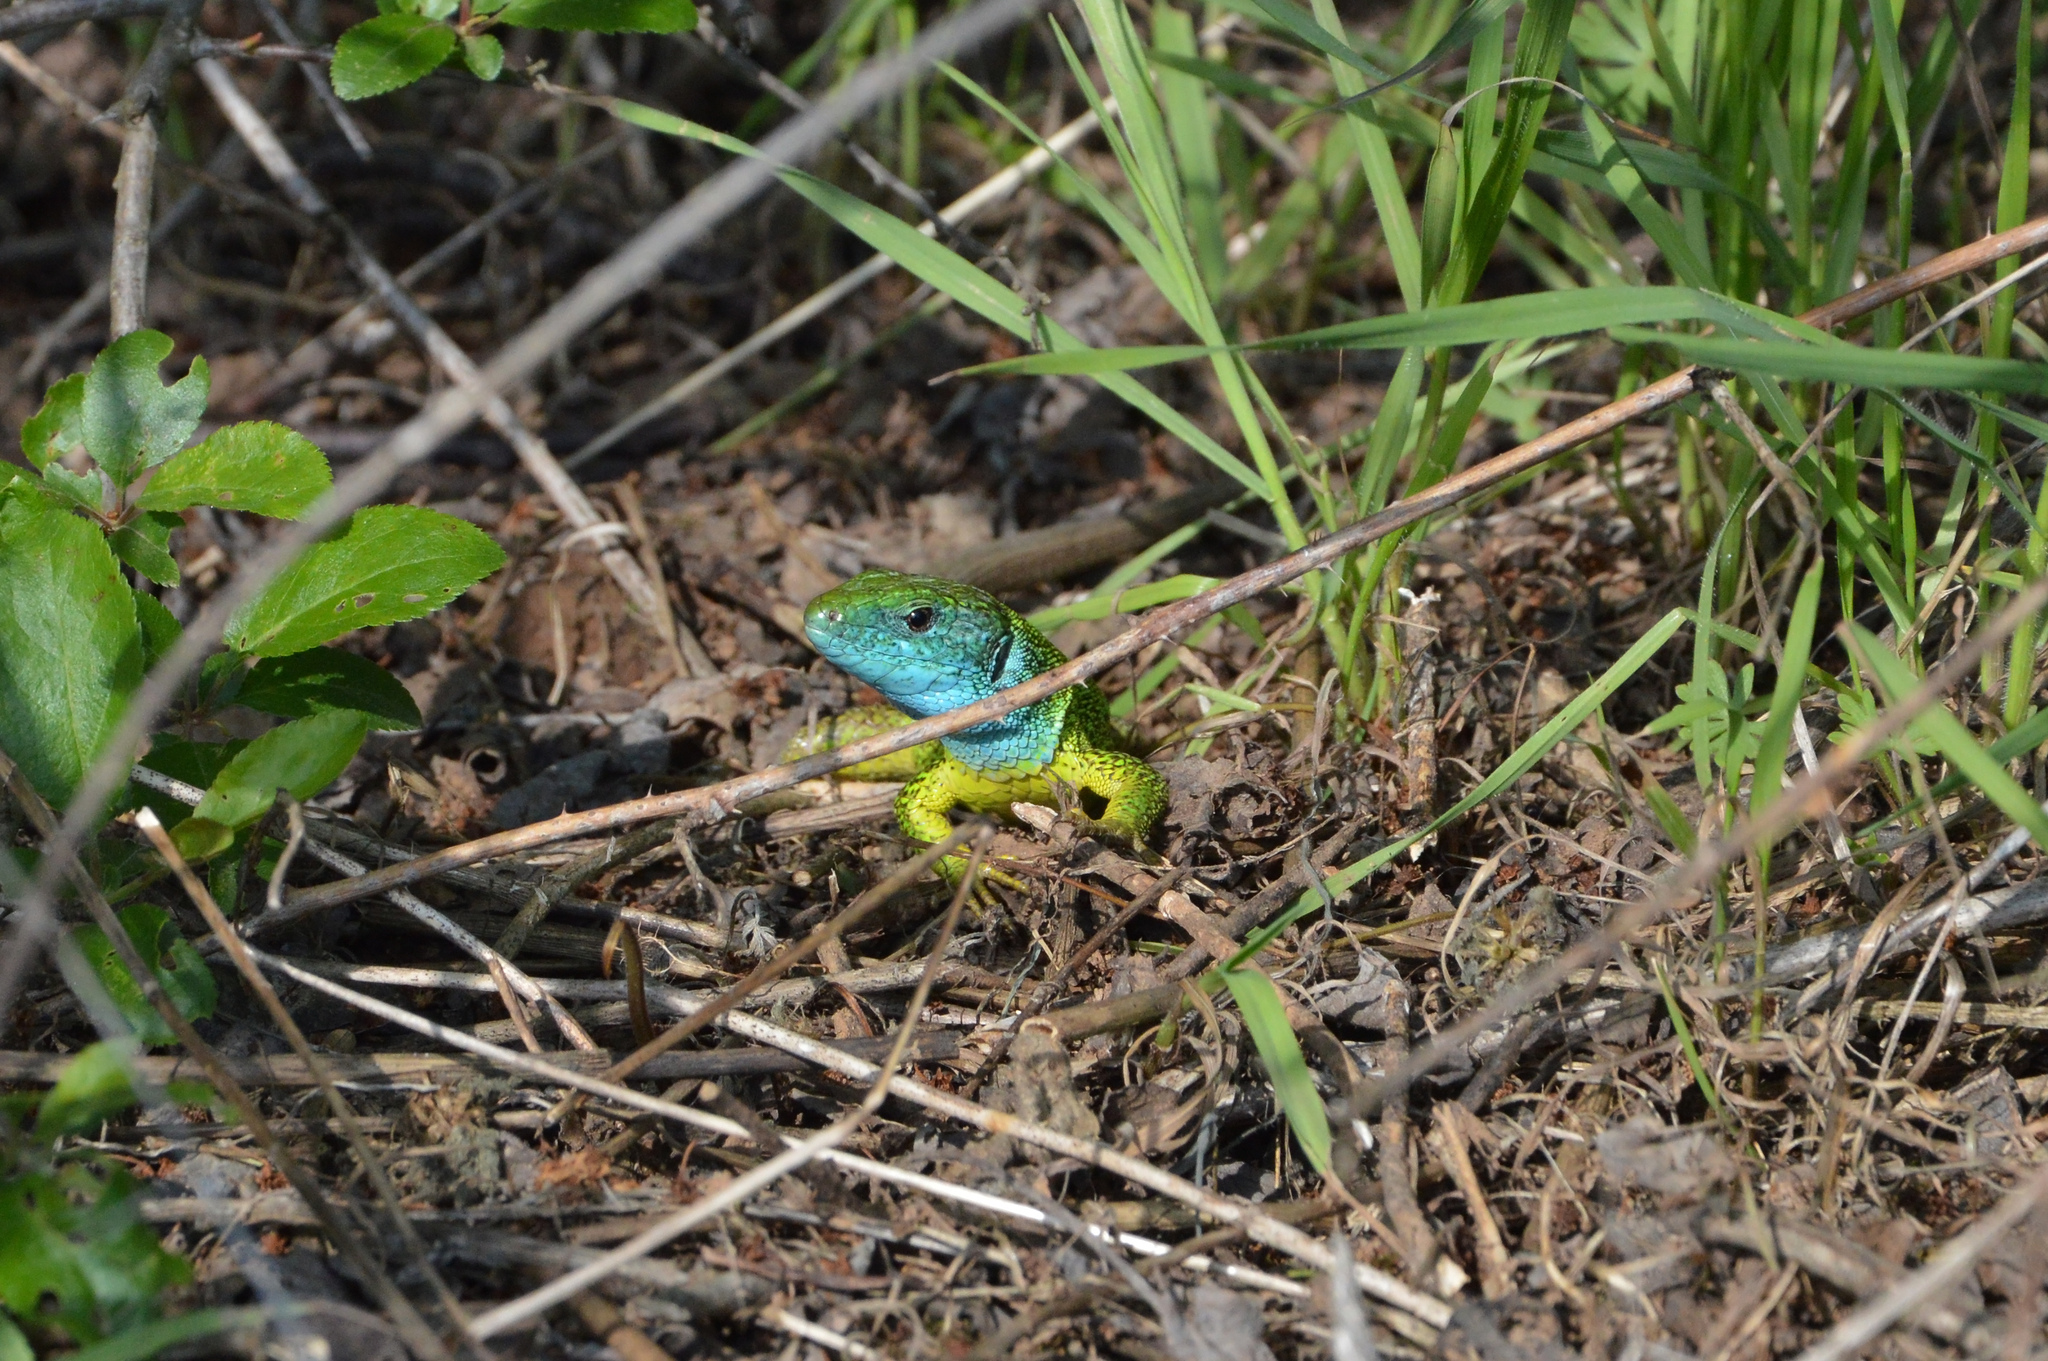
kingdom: Animalia
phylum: Chordata
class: Squamata
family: Lacertidae
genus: Lacerta
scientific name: Lacerta viridis
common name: European green lizard
